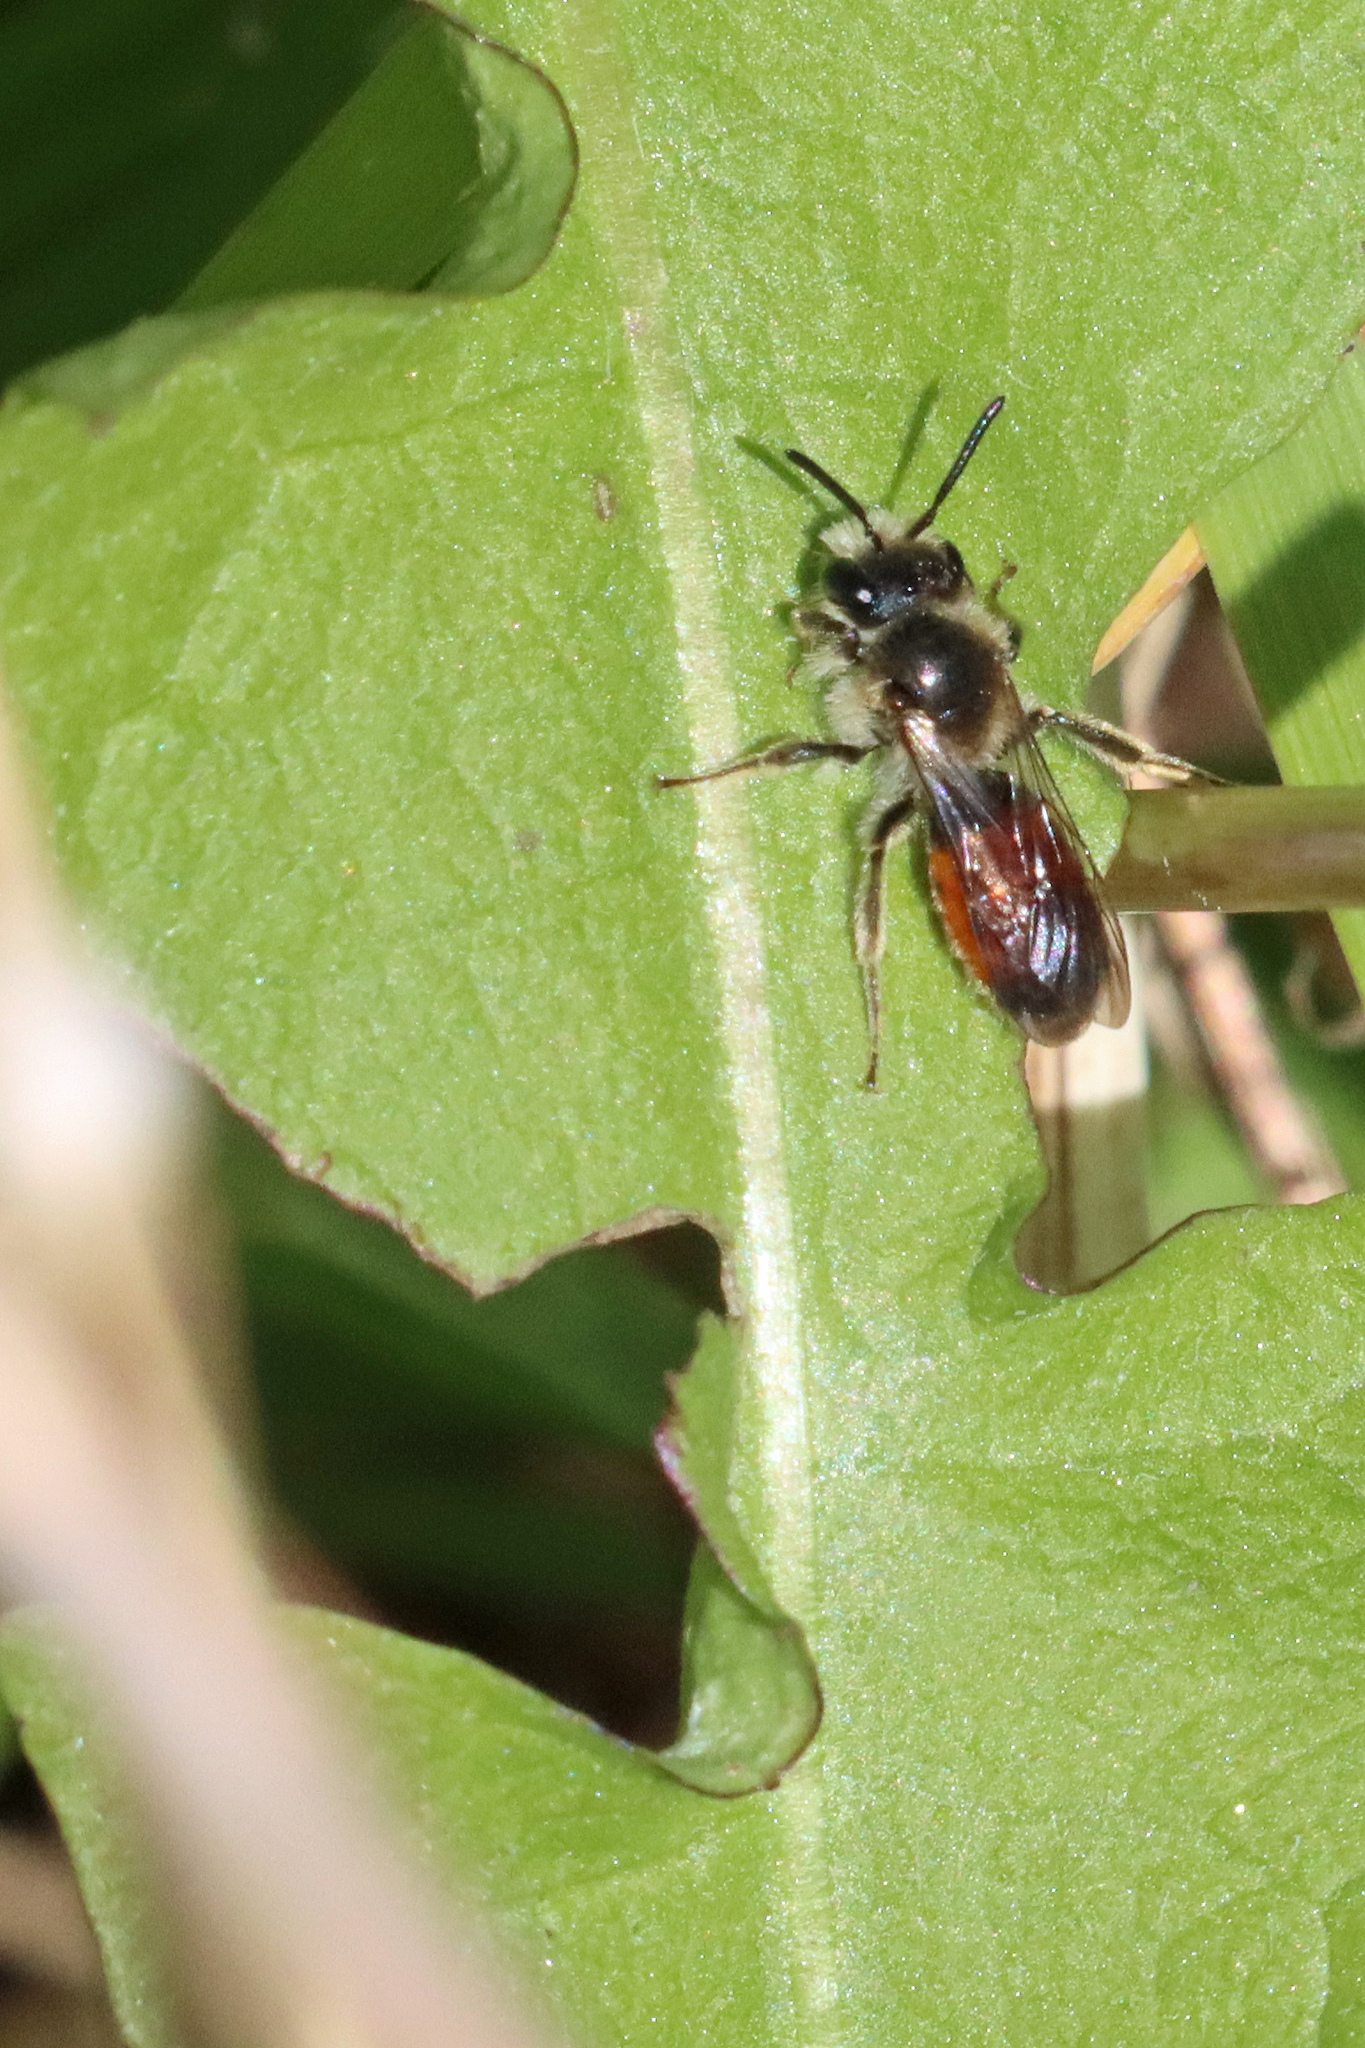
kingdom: Animalia
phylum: Arthropoda
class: Insecta
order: Hymenoptera
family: Andrenidae
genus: Andrena
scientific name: Andrena labiata
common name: Red-girdled mining bee
